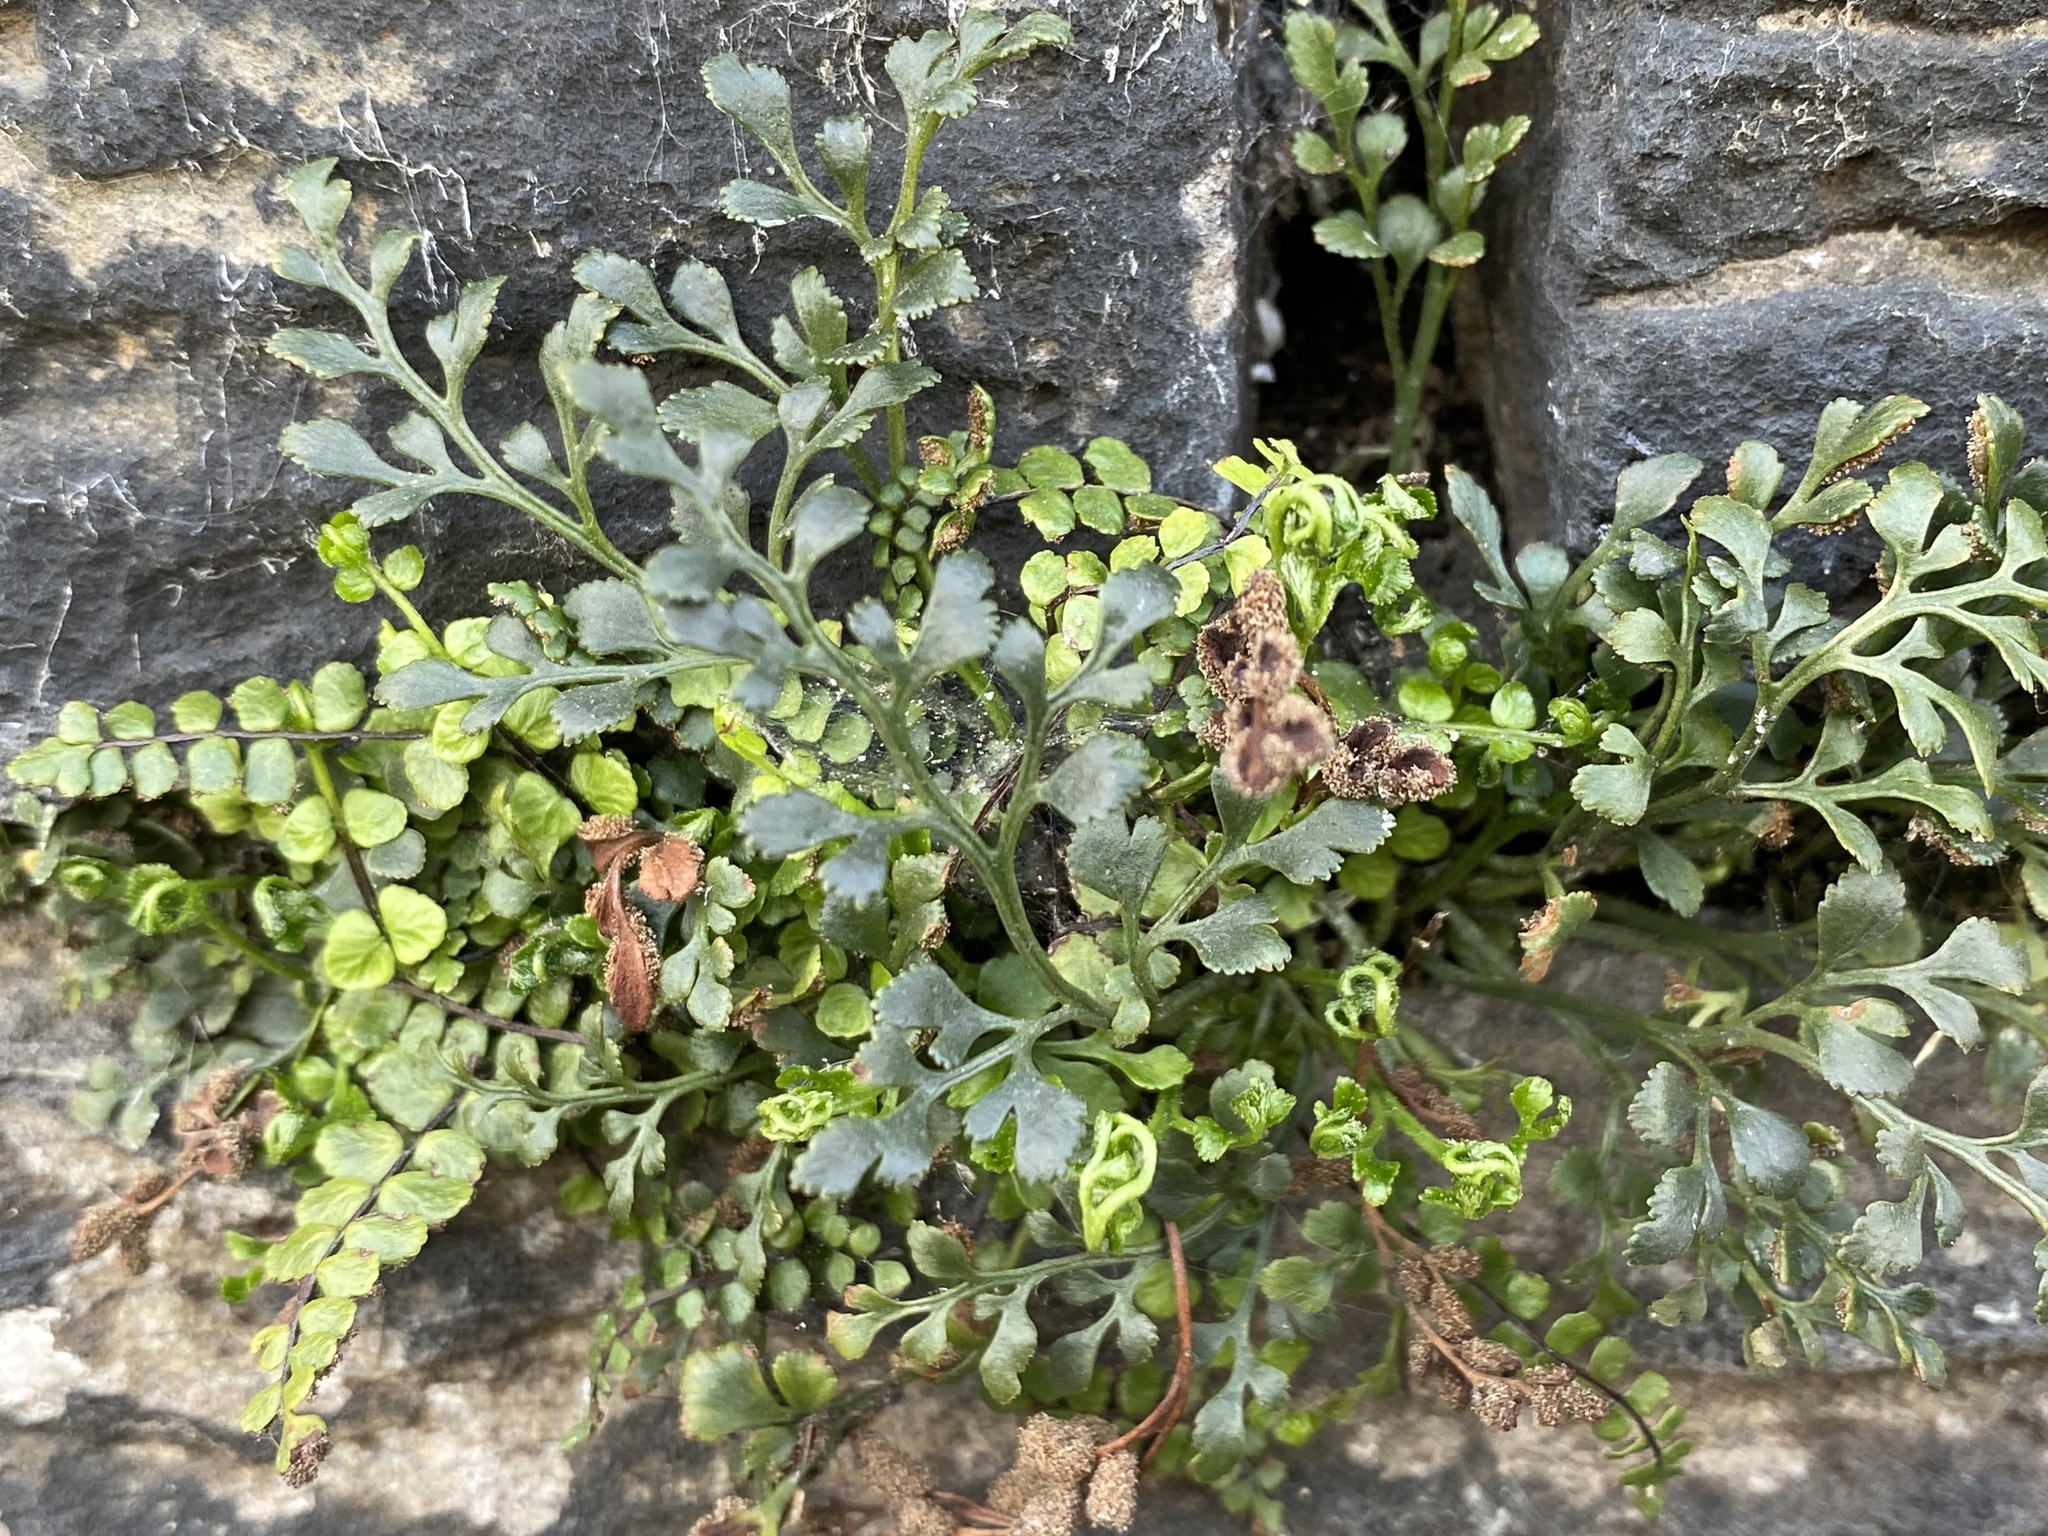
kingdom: Plantae
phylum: Tracheophyta
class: Polypodiopsida
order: Polypodiales
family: Aspleniaceae
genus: Asplenium
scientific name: Asplenium ruta-muraria
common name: Wall-rue
